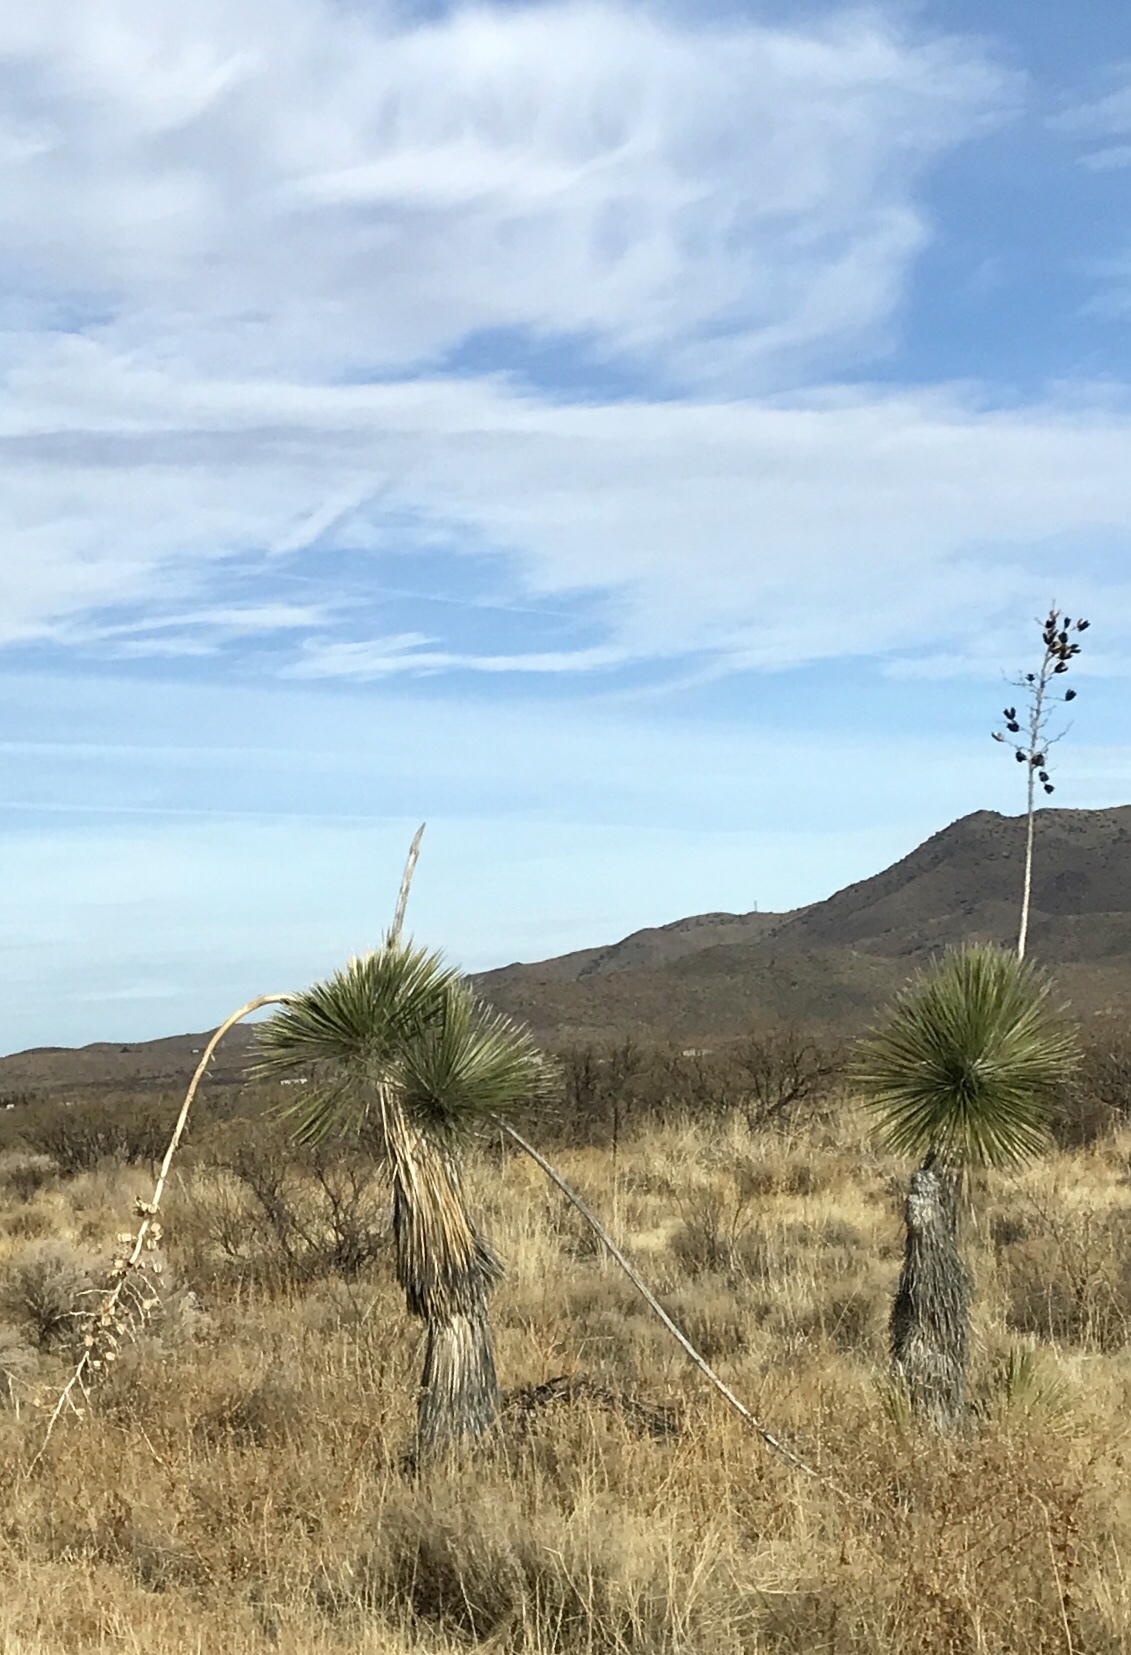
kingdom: Plantae
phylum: Tracheophyta
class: Liliopsida
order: Asparagales
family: Asparagaceae
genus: Yucca
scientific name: Yucca elata
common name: Palmella
